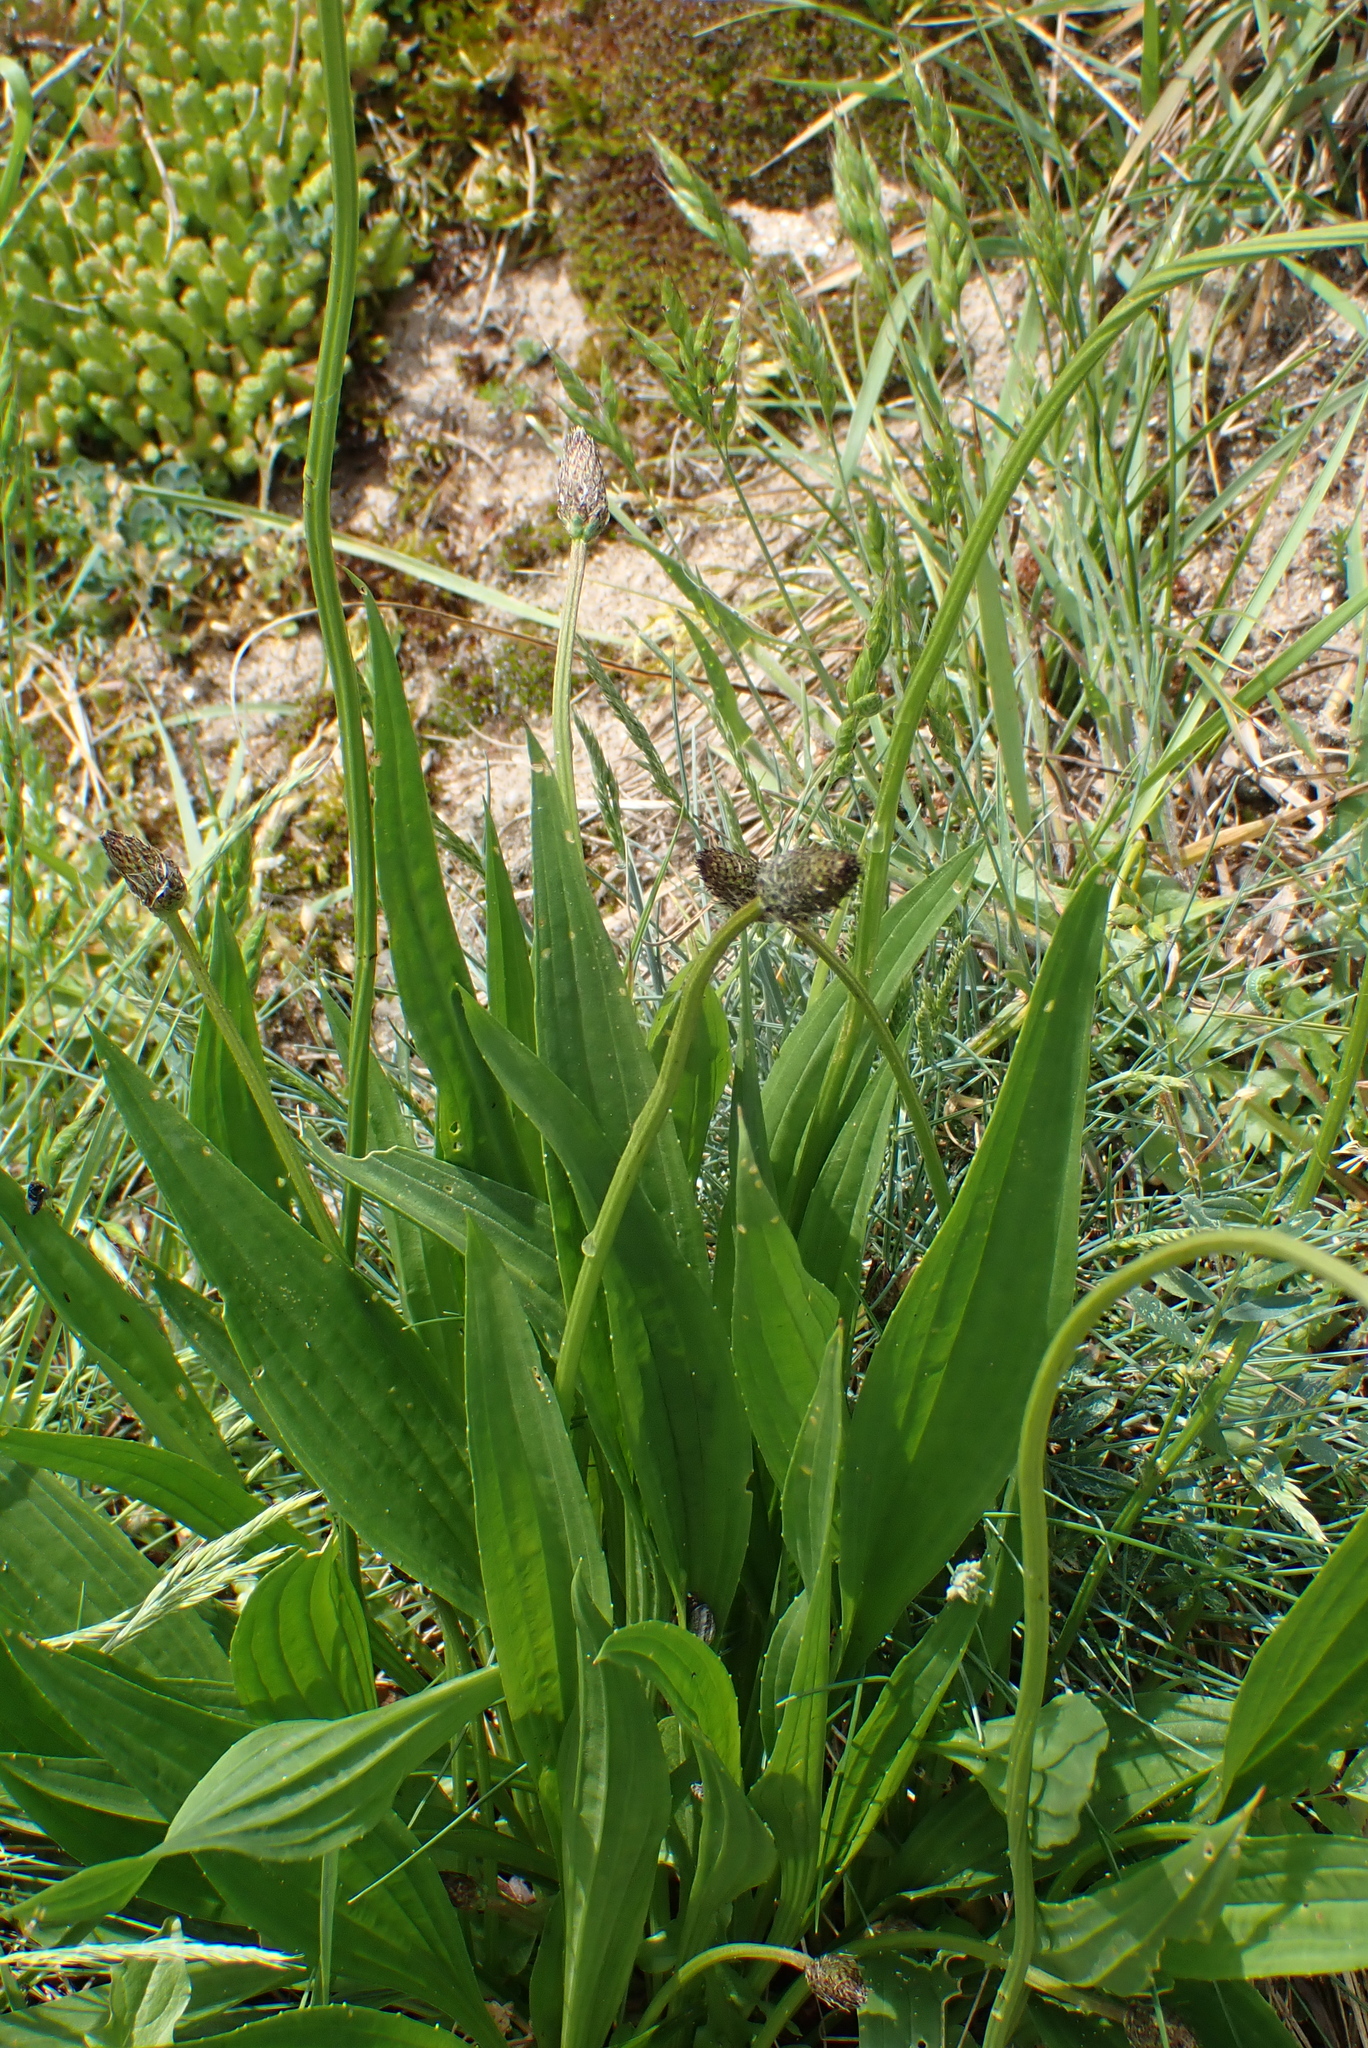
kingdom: Plantae
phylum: Tracheophyta
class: Magnoliopsida
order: Lamiales
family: Plantaginaceae
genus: Plantago
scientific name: Plantago lanceolata
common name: Ribwort plantain
